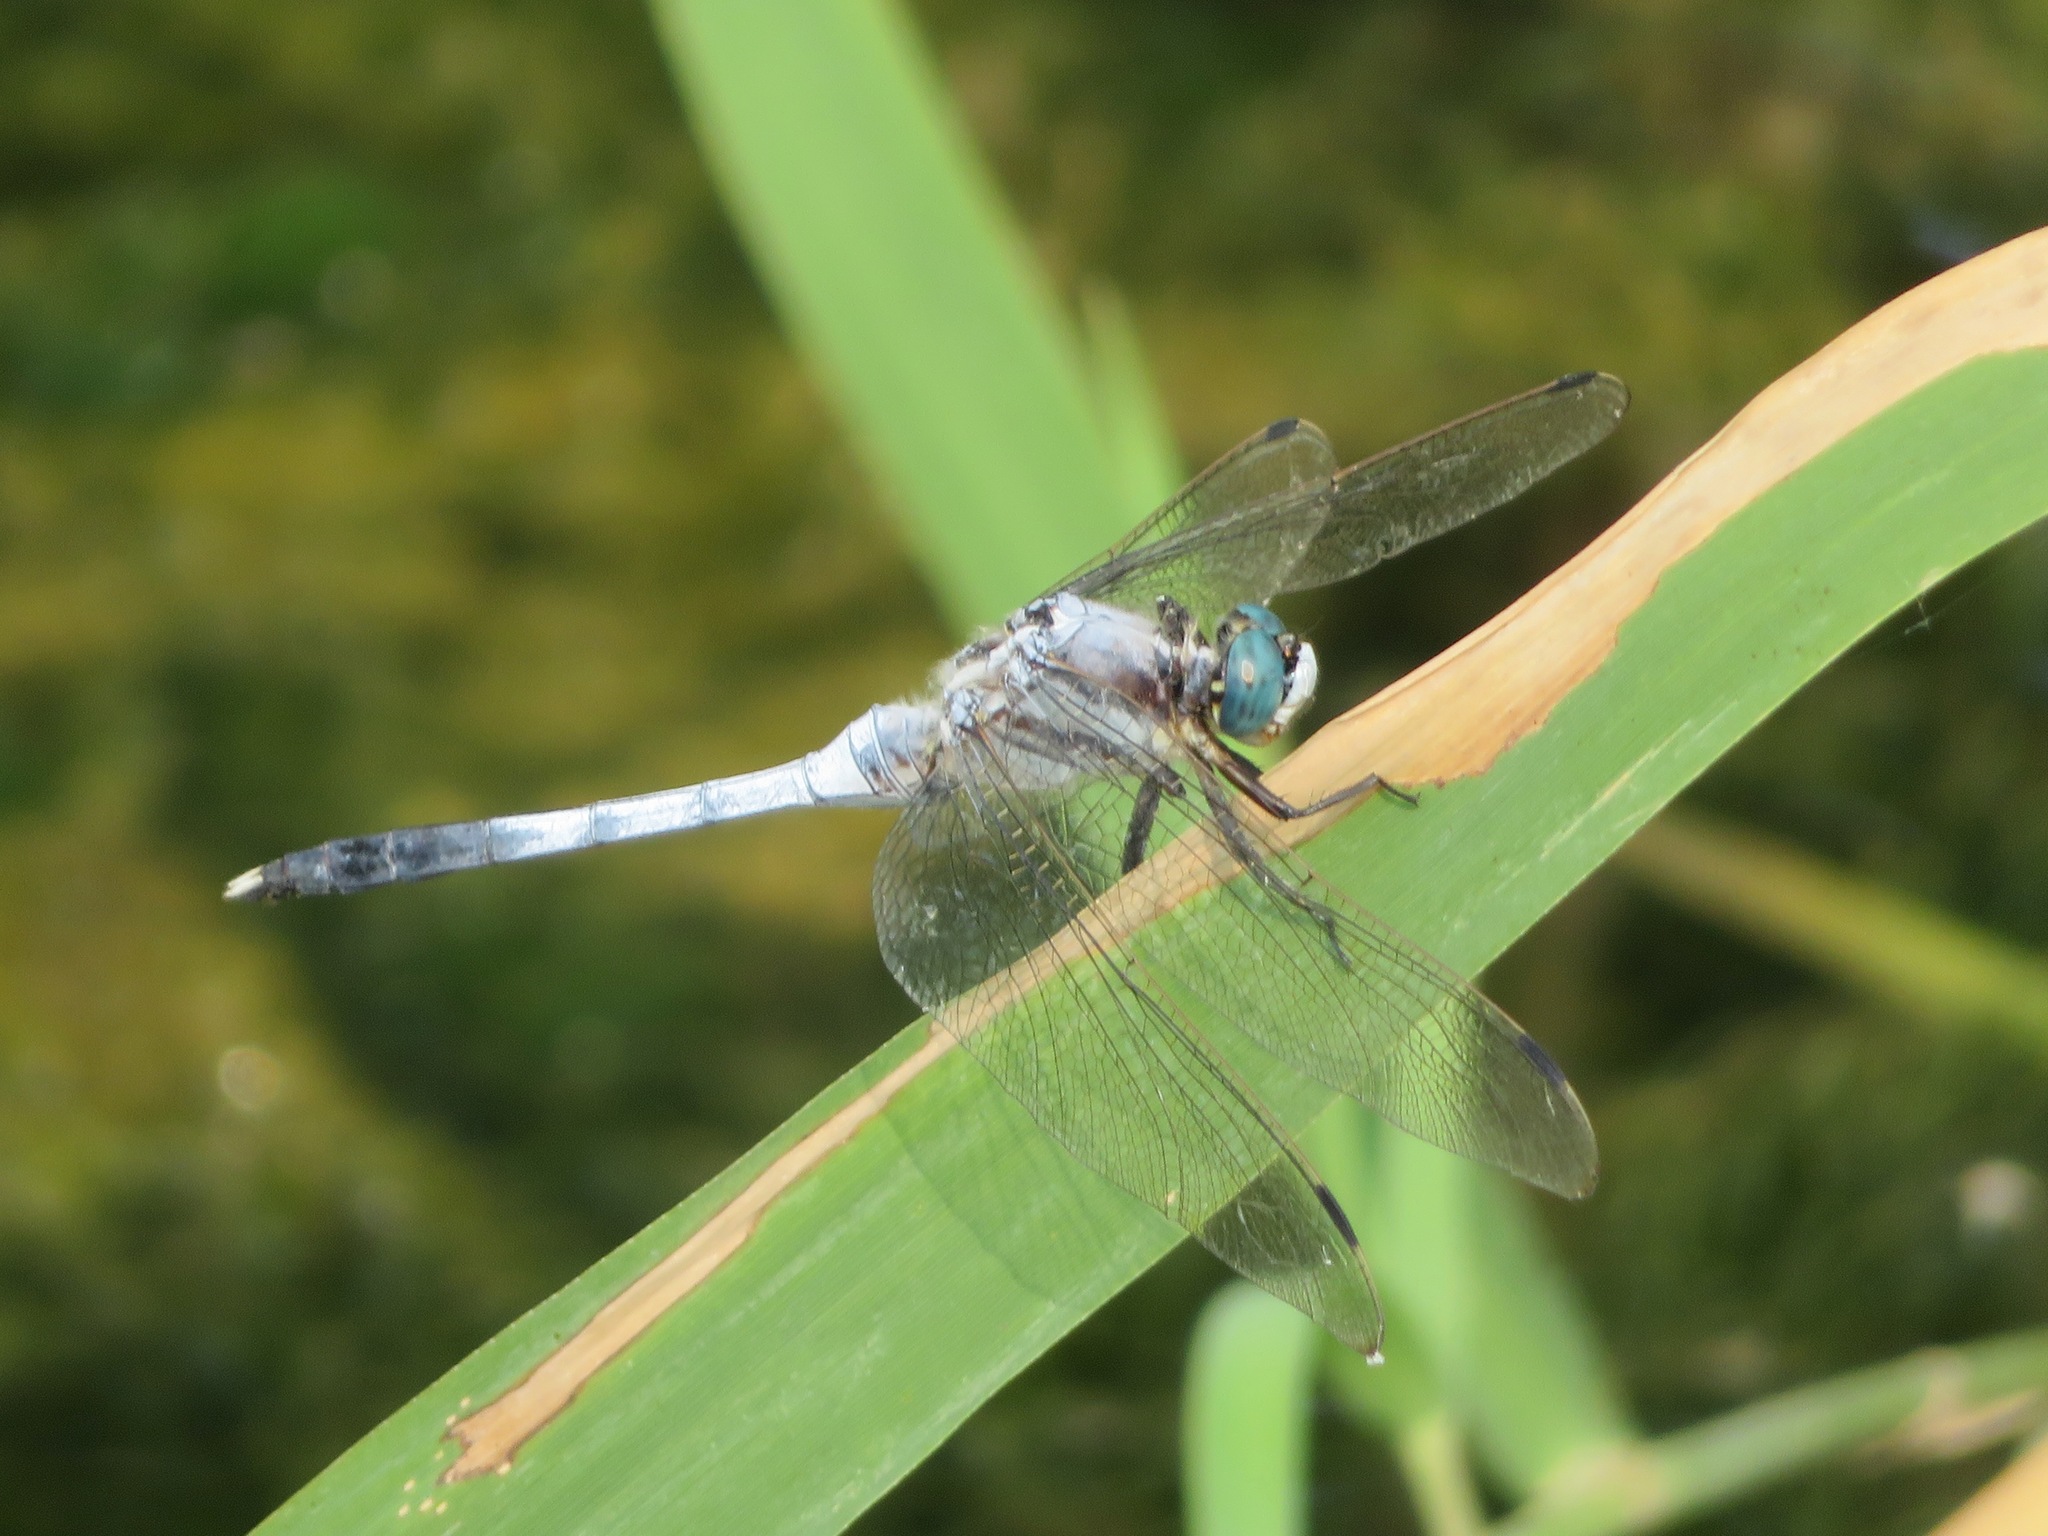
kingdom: Animalia
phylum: Arthropoda
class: Insecta
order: Odonata
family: Libellulidae
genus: Orthetrum
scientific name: Orthetrum albistylum
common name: White-tailed skimmer
